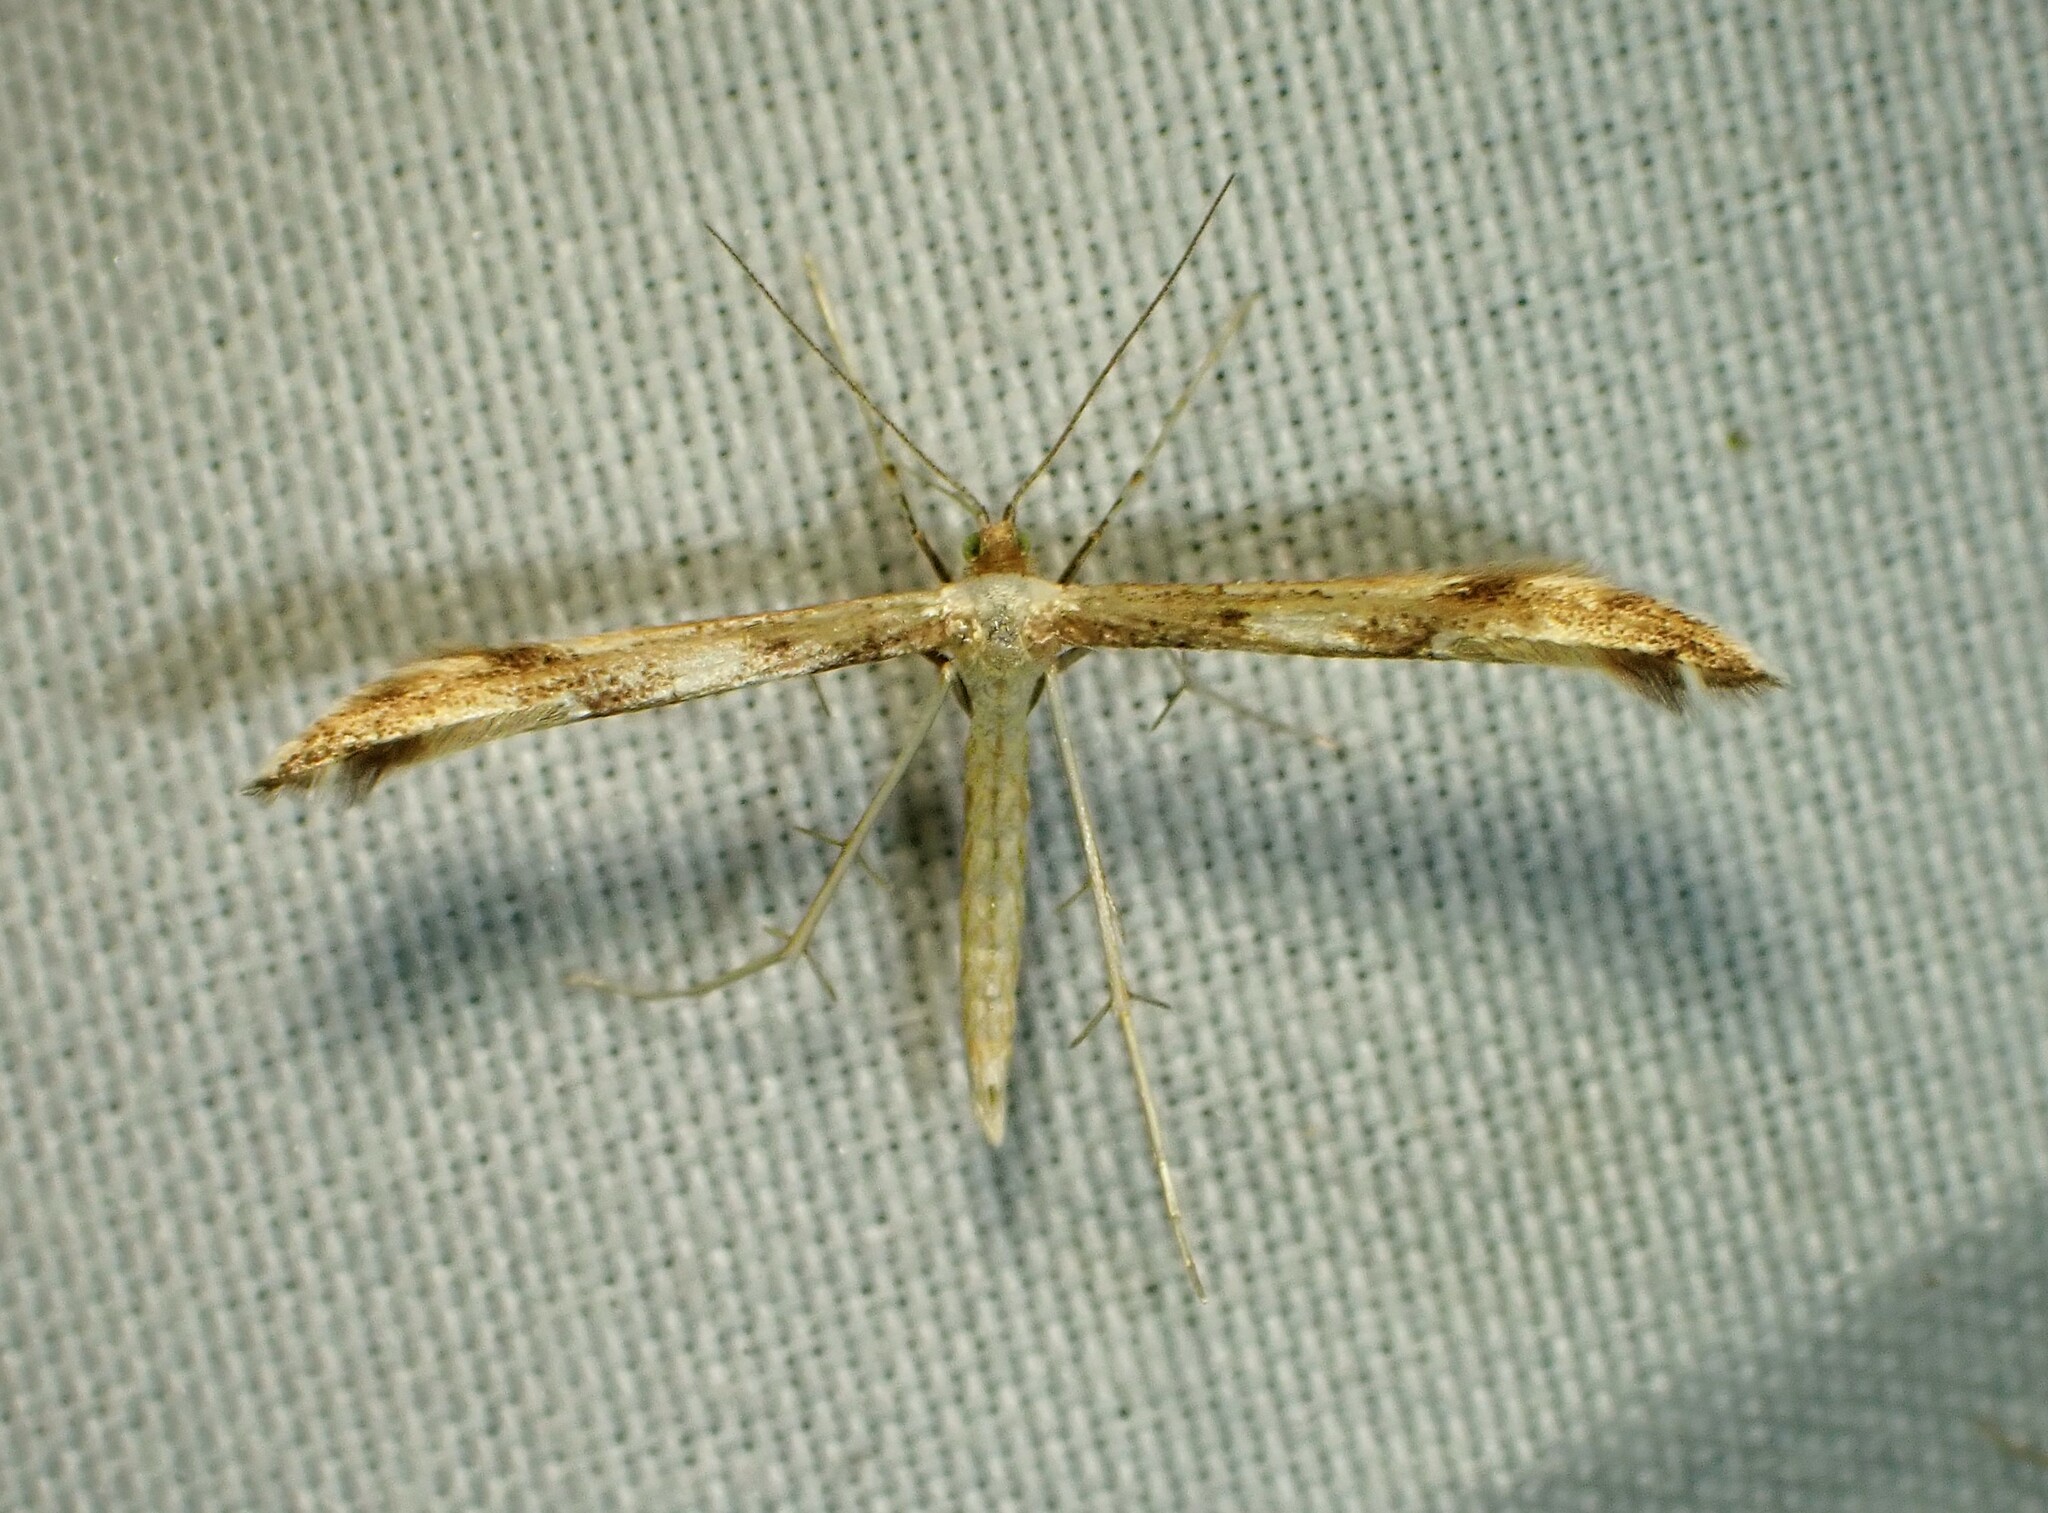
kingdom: Animalia
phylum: Arthropoda
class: Insecta
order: Lepidoptera
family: Pterophoridae
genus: Adaina
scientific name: Adaina montanus
